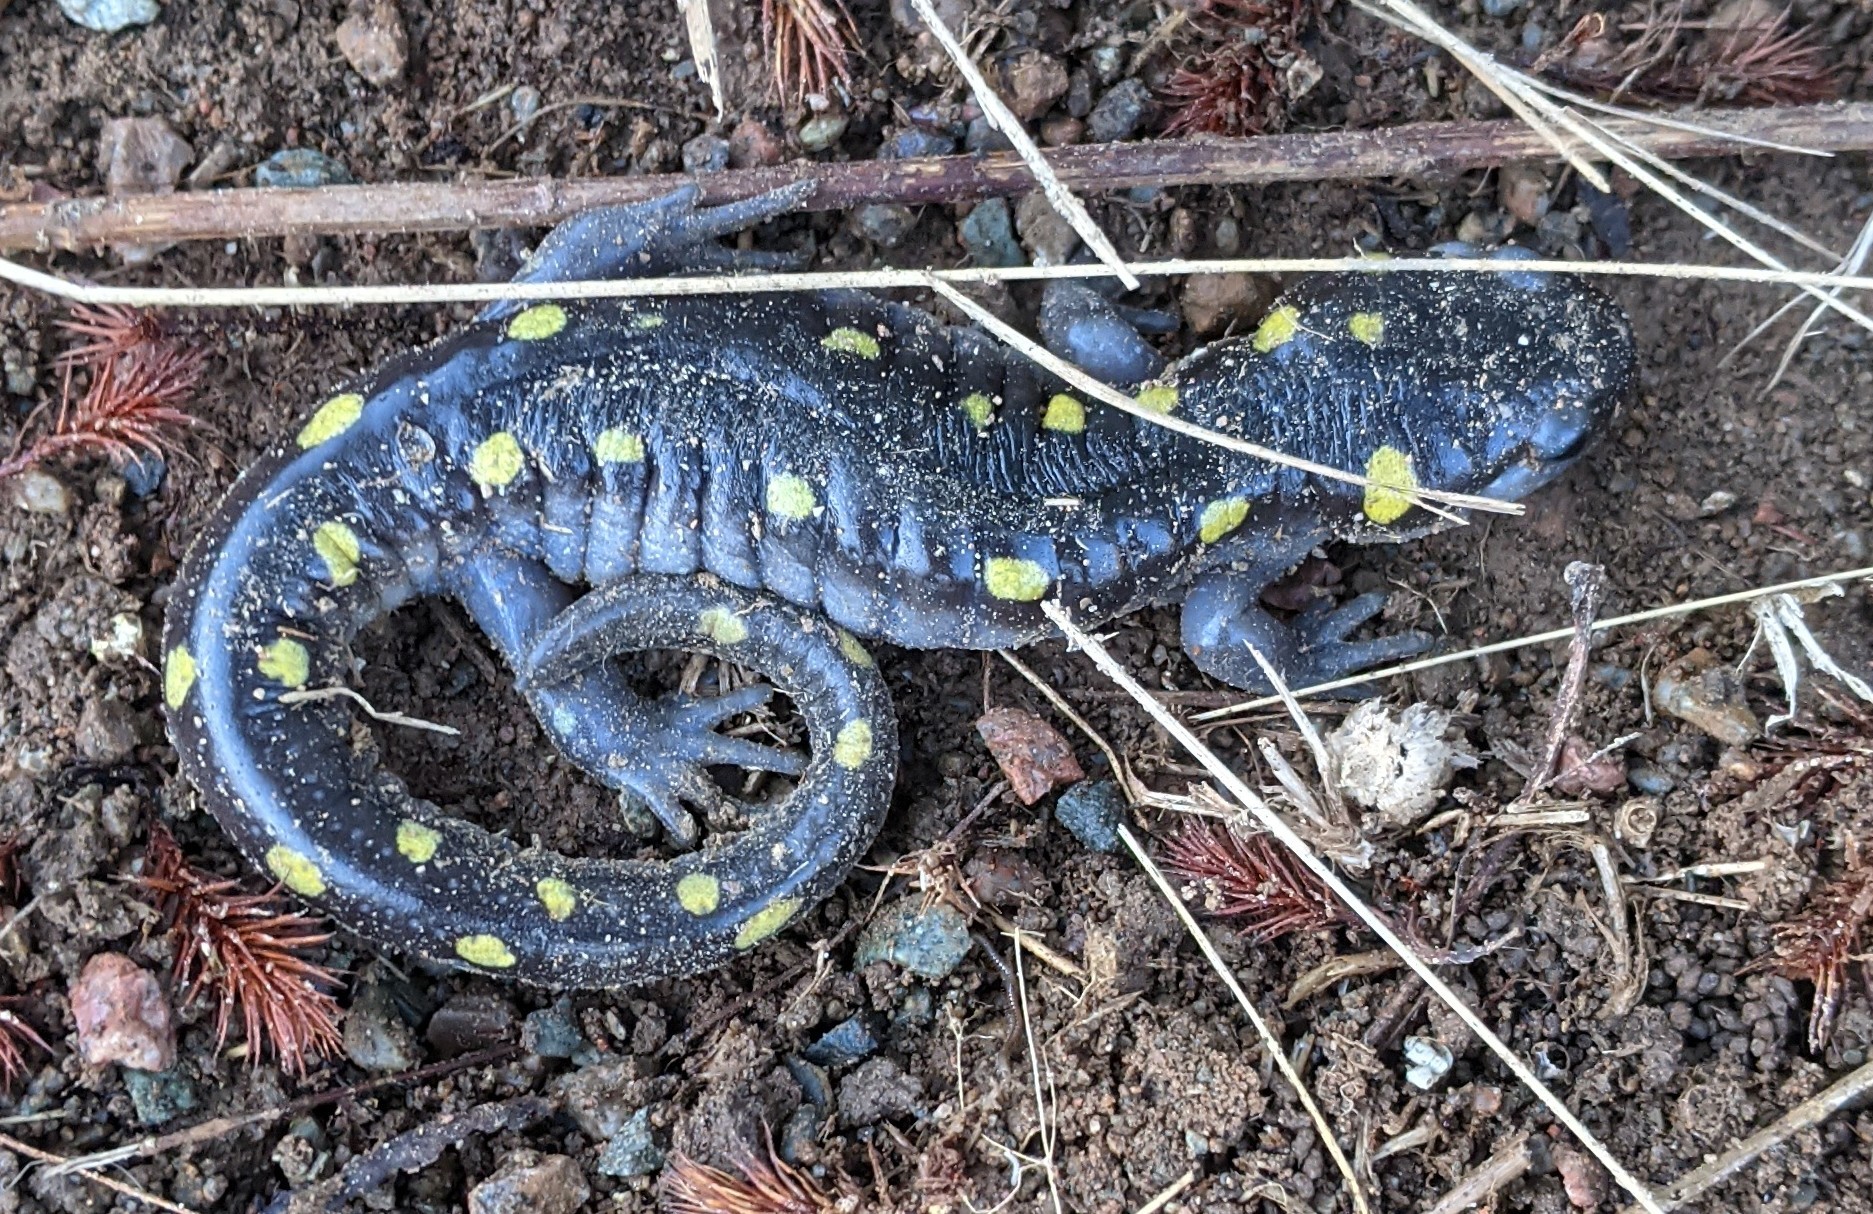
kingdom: Animalia
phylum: Chordata
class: Amphibia
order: Caudata
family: Ambystomatidae
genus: Ambystoma
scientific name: Ambystoma maculatum
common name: Spotted salamander
